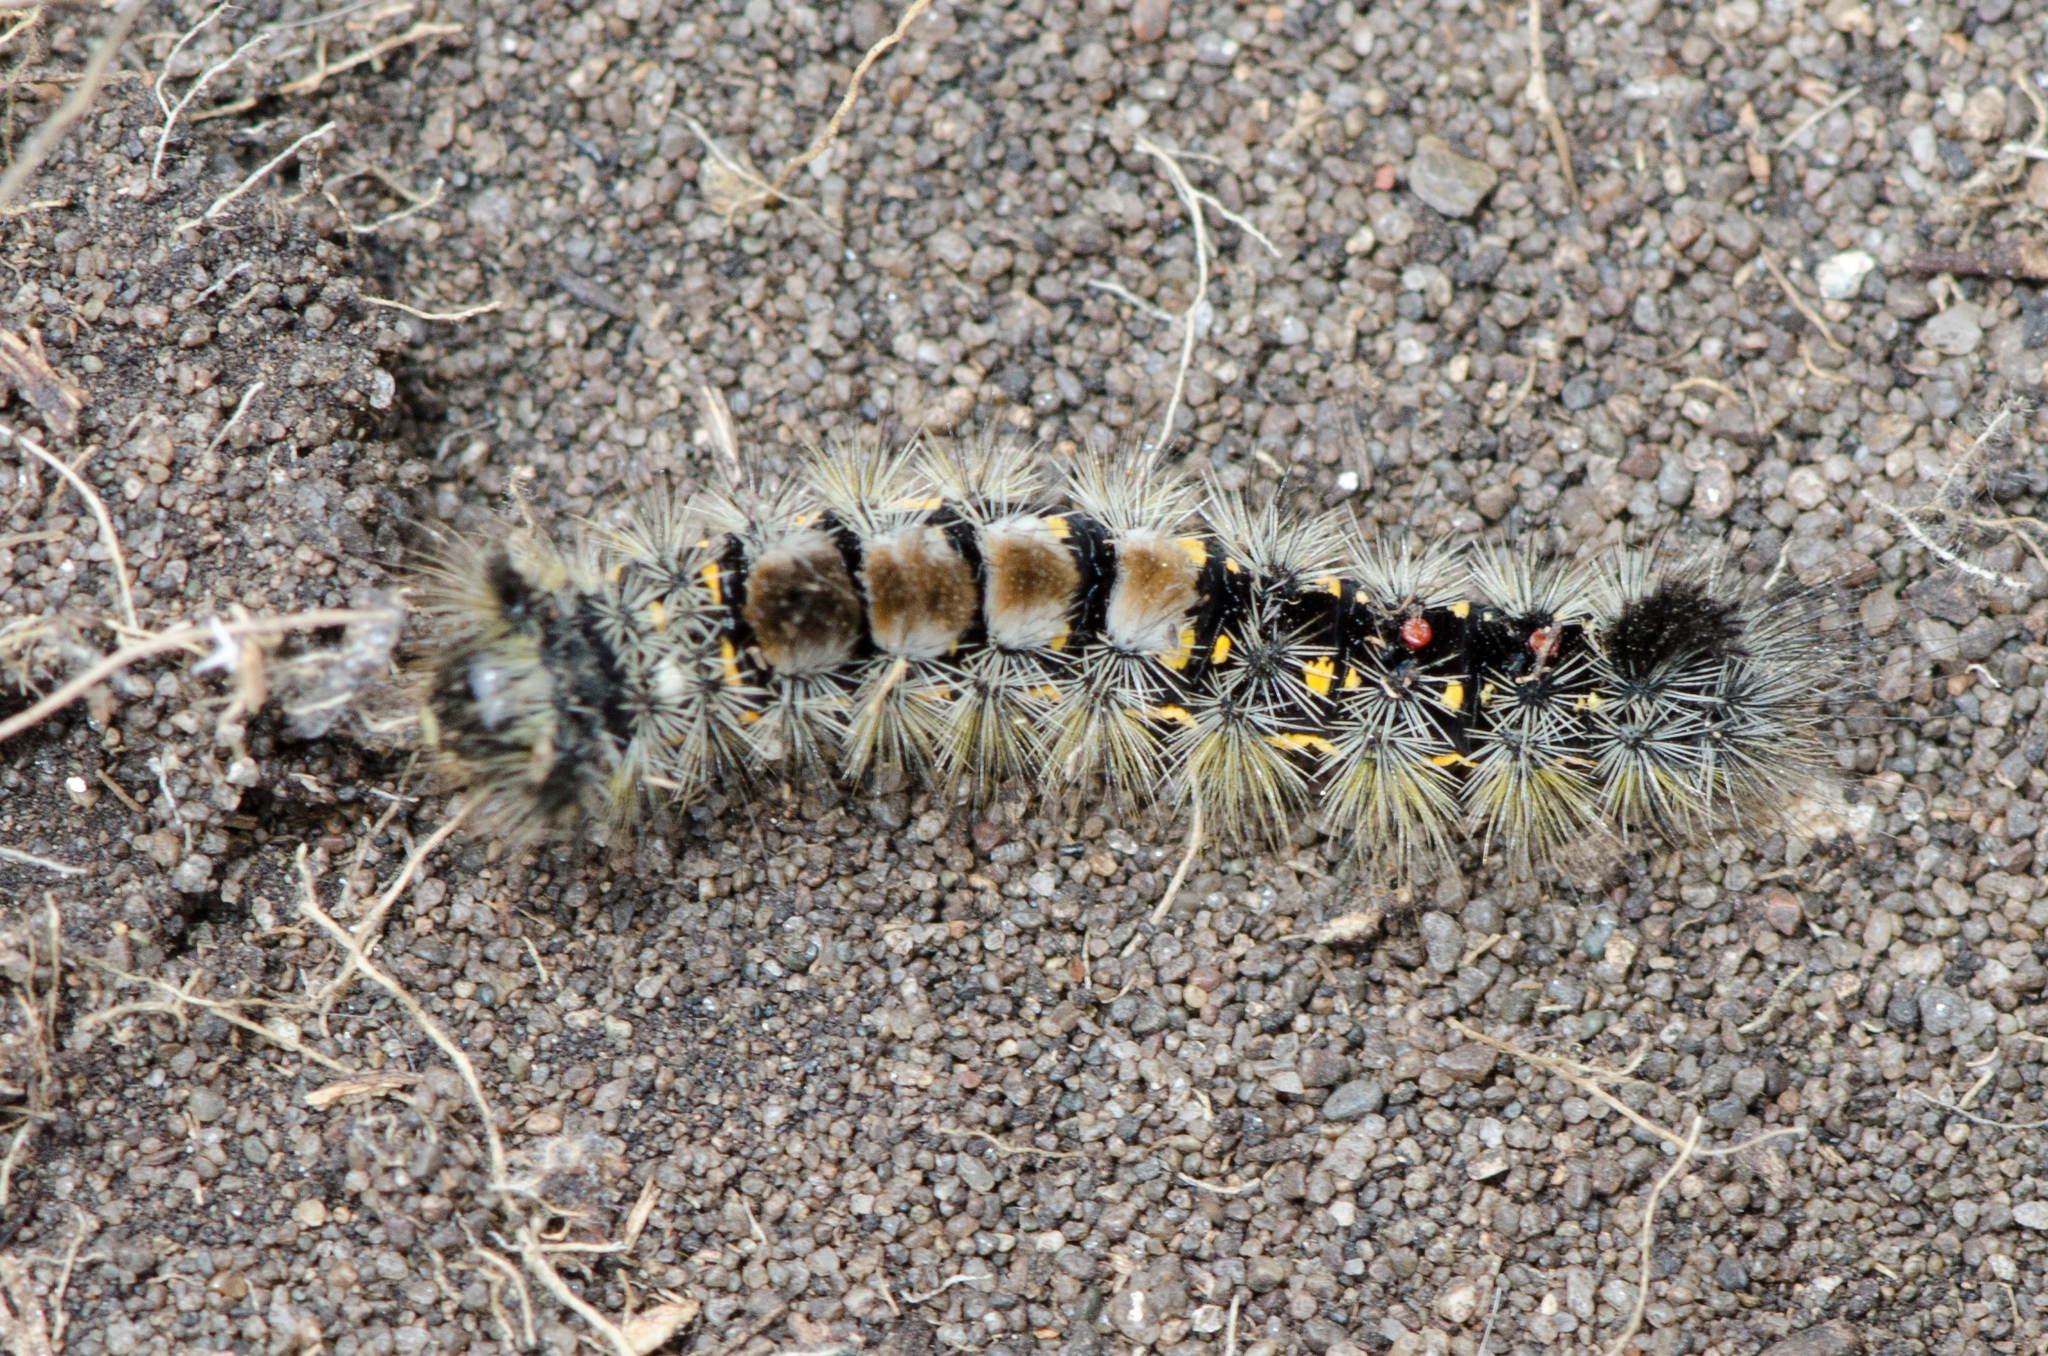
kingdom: Animalia
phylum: Arthropoda
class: Insecta
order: Lepidoptera
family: Erebidae
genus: Orgyia
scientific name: Orgyia vetusta
